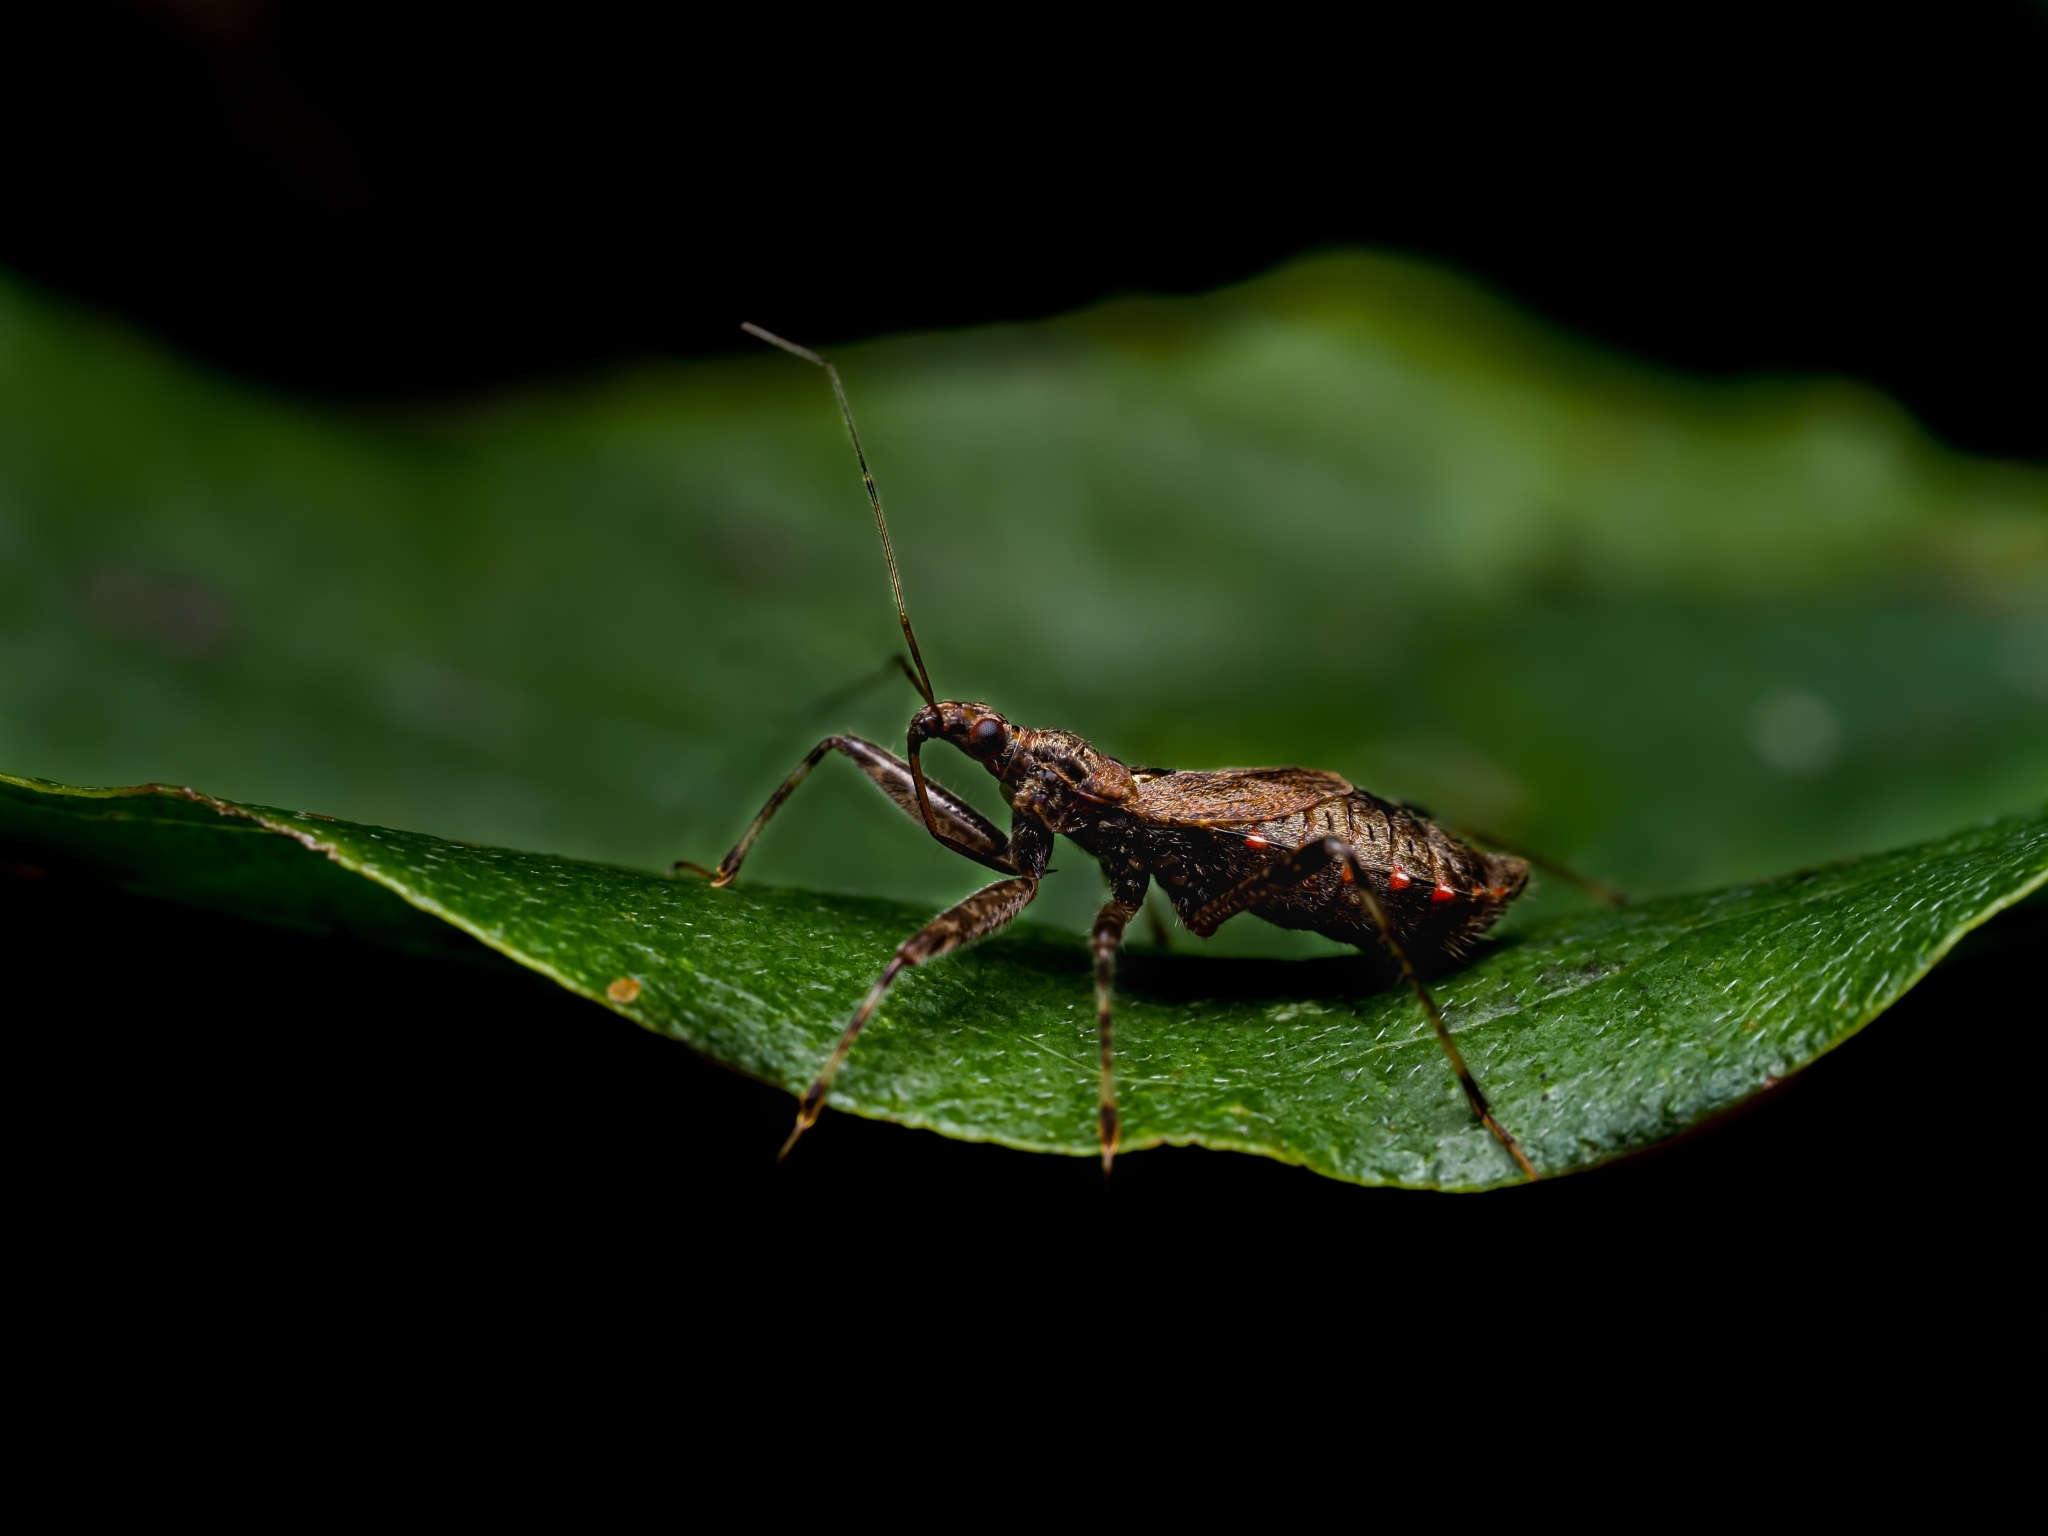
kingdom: Animalia
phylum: Arthropoda
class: Insecta
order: Hemiptera
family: Nabidae
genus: Himacerus
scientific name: Himacerus apterus
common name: Tree damsel bug
